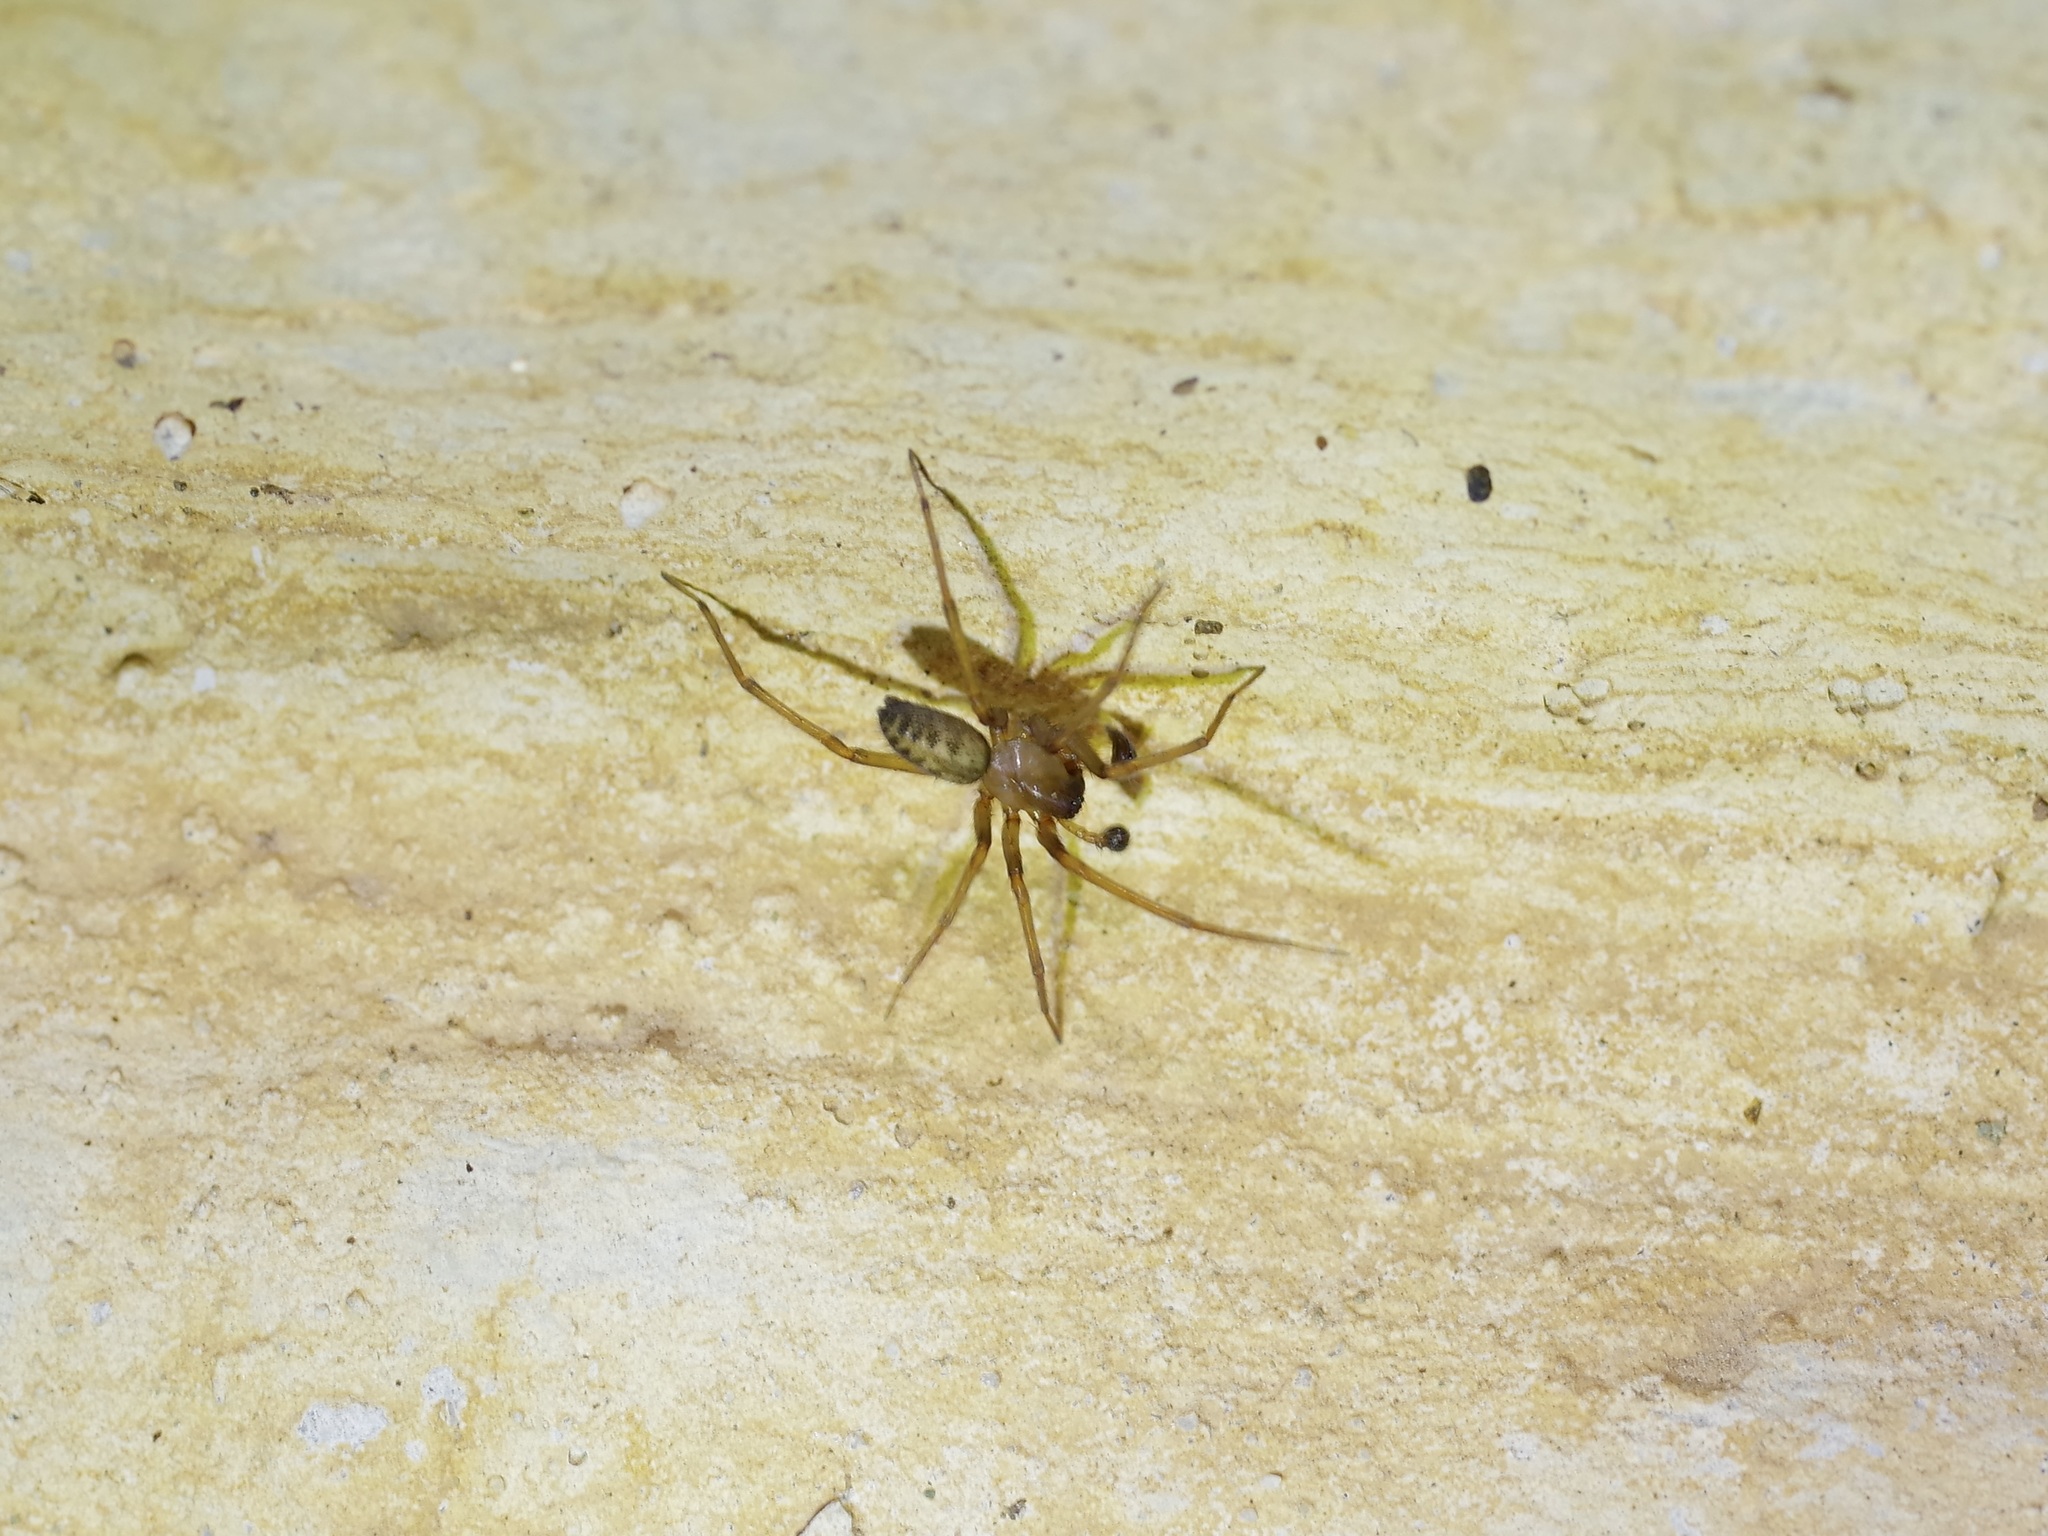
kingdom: Animalia
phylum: Arthropoda
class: Arachnida
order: Araneae
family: Desidae
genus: Metaltella
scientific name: Metaltella simoni
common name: Cribellate spider
